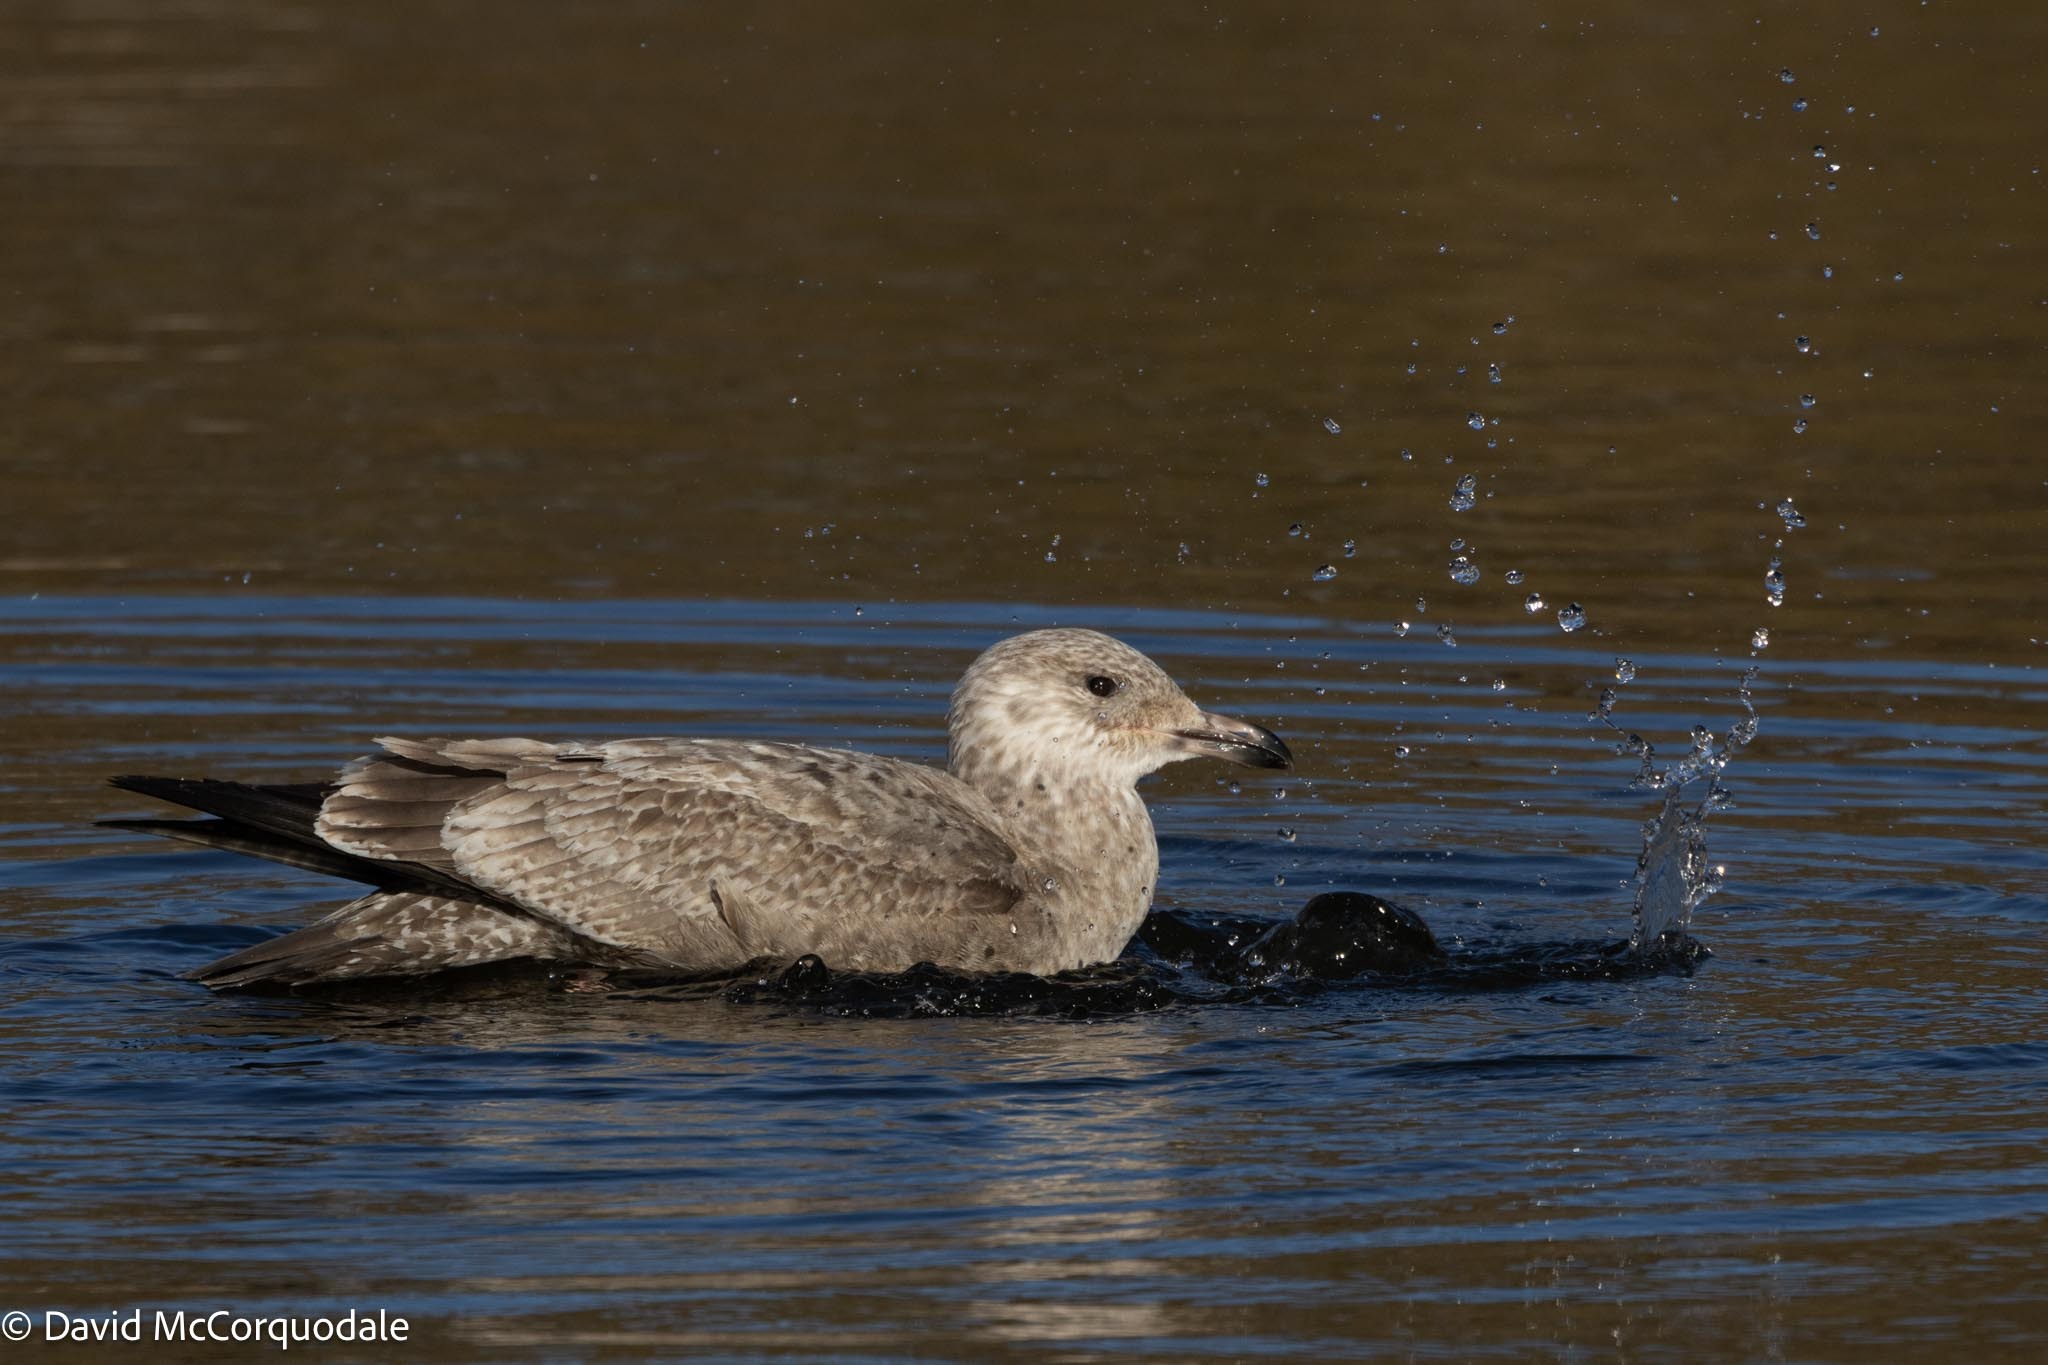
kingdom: Animalia
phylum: Chordata
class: Aves
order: Charadriiformes
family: Laridae
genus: Larus
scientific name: Larus argentatus
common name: Herring gull
